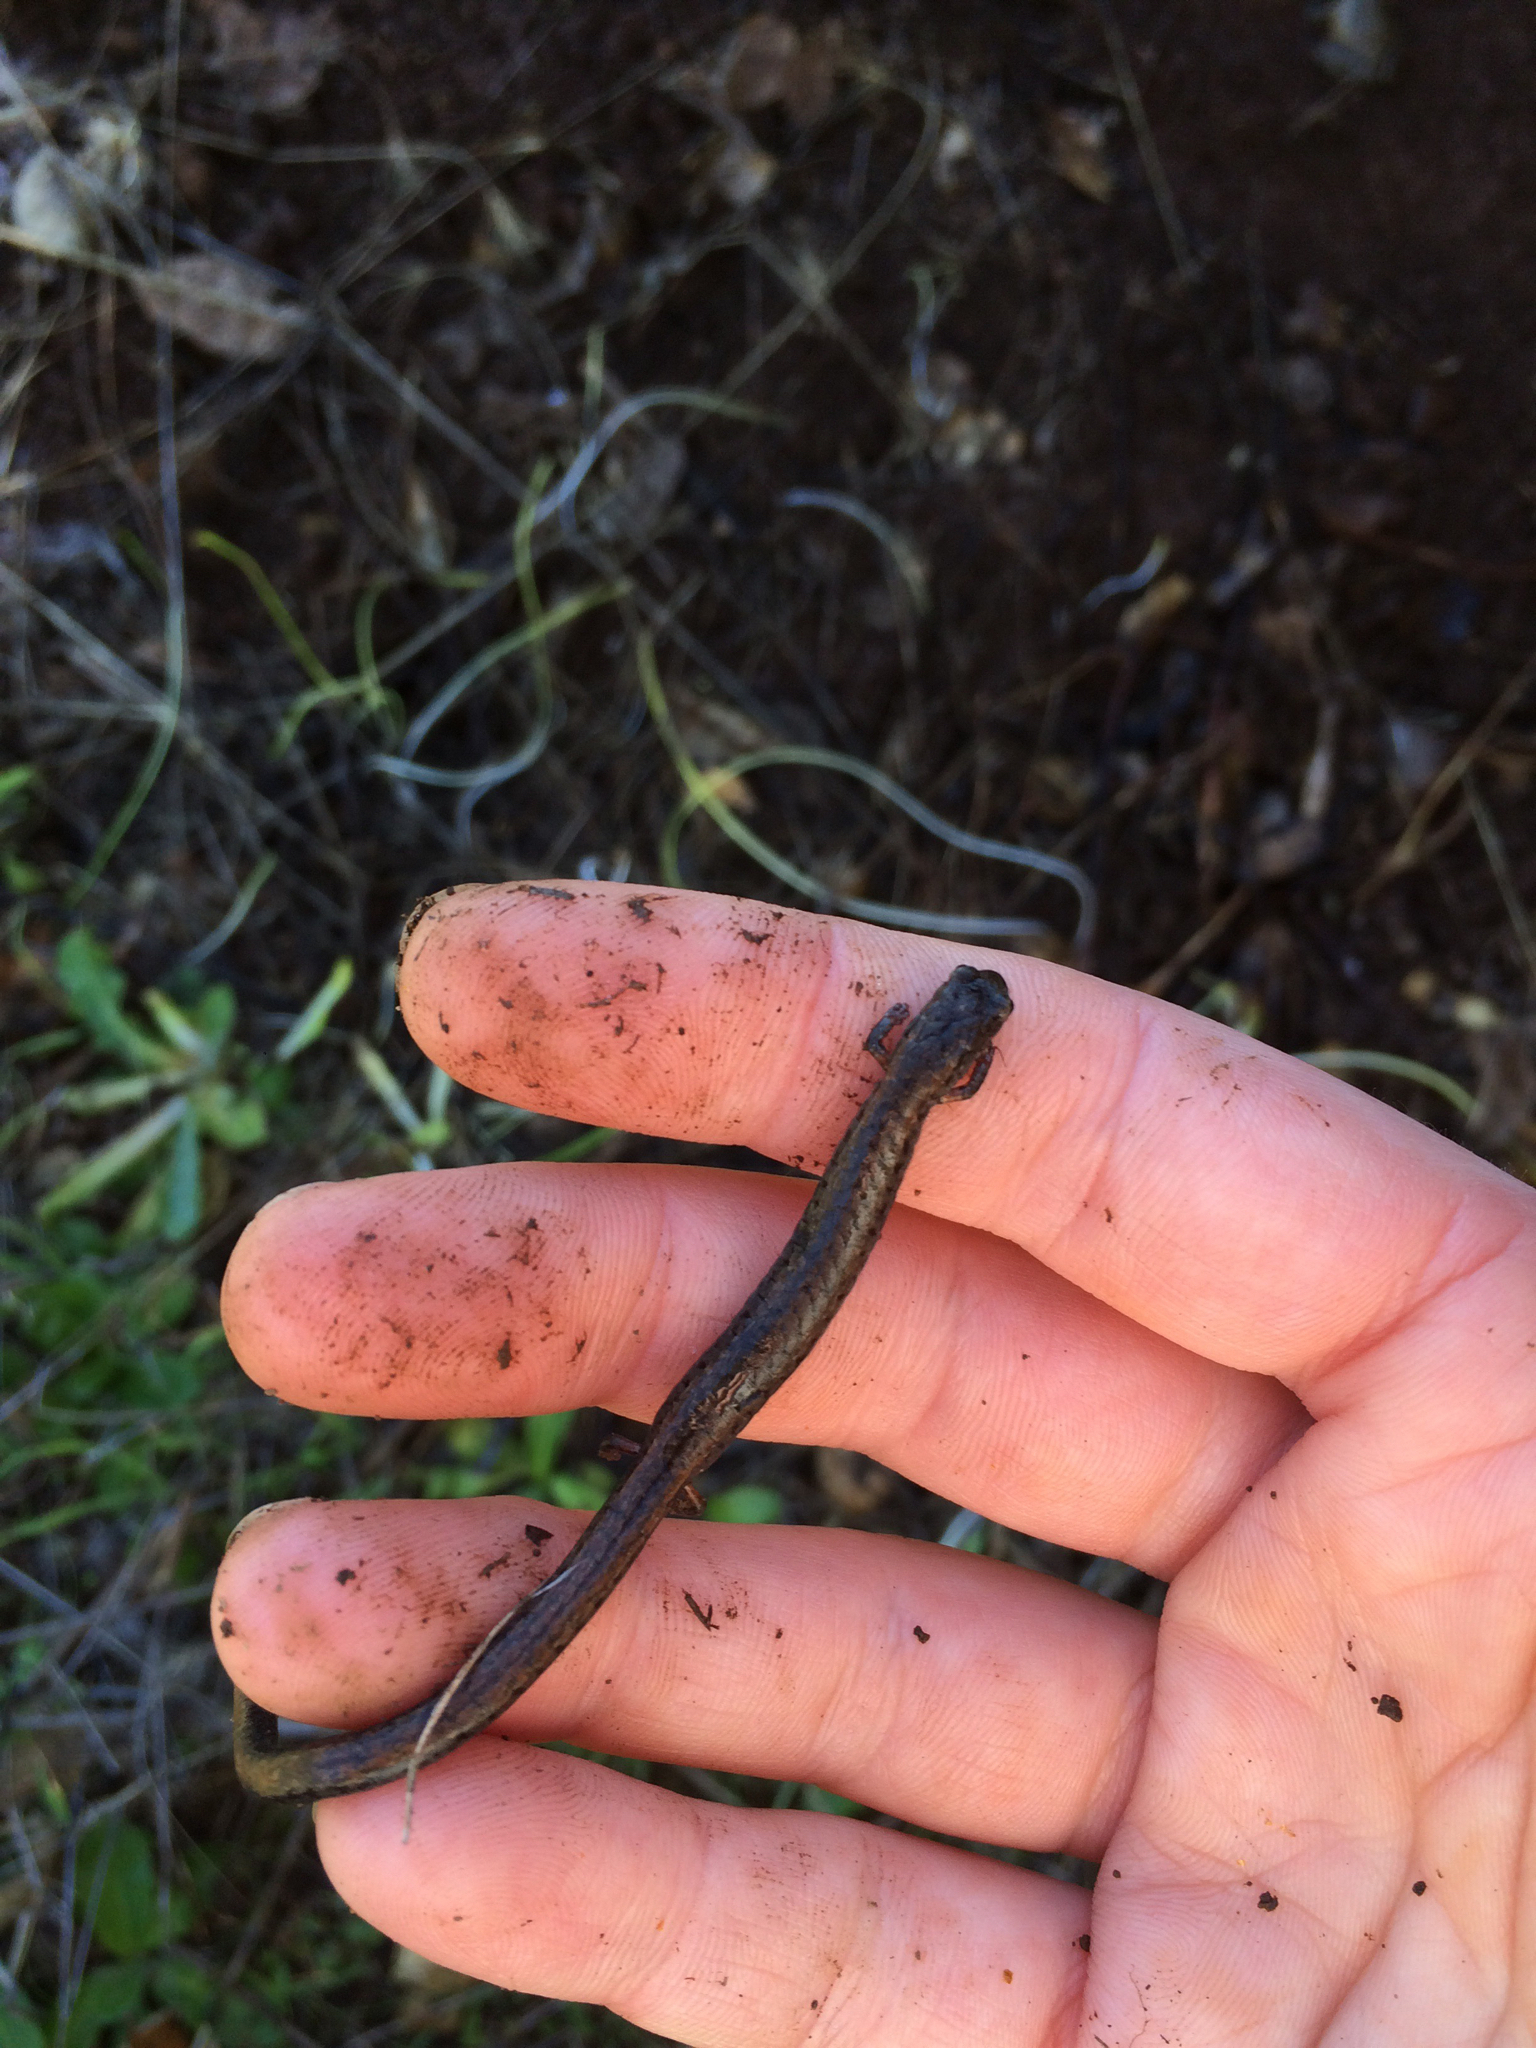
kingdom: Animalia
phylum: Chordata
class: Amphibia
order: Caudata
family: Plethodontidae
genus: Batrachoseps
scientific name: Batrachoseps attenuatus
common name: California slender salamander
